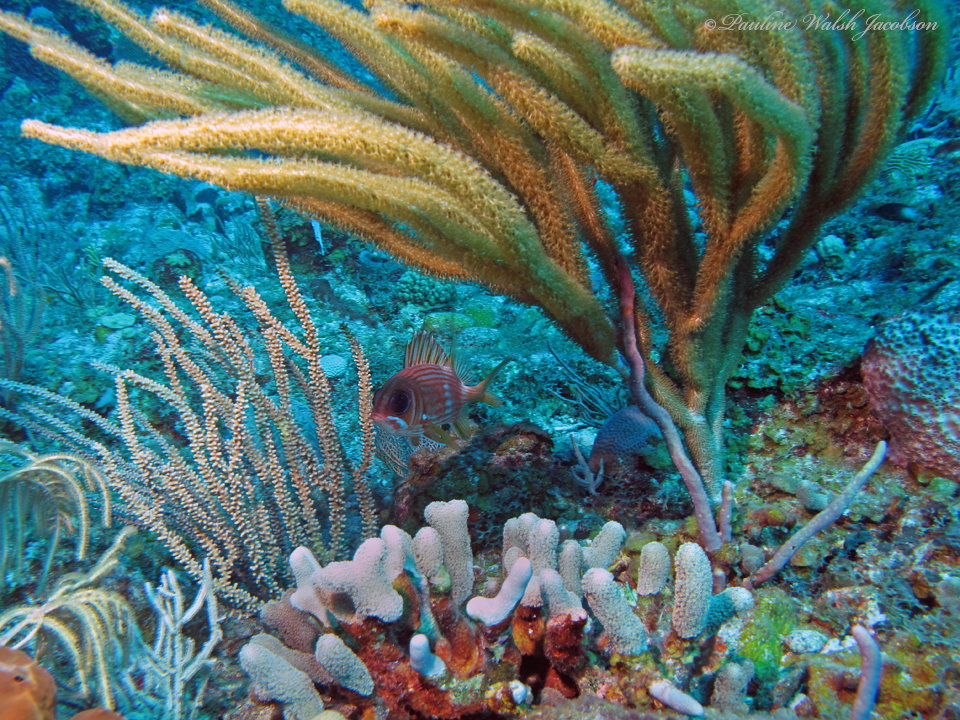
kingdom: Animalia
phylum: Chordata
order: Beryciformes
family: Holocentridae
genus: Holocentrus
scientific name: Holocentrus rufus
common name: Longspine squirrelfish
